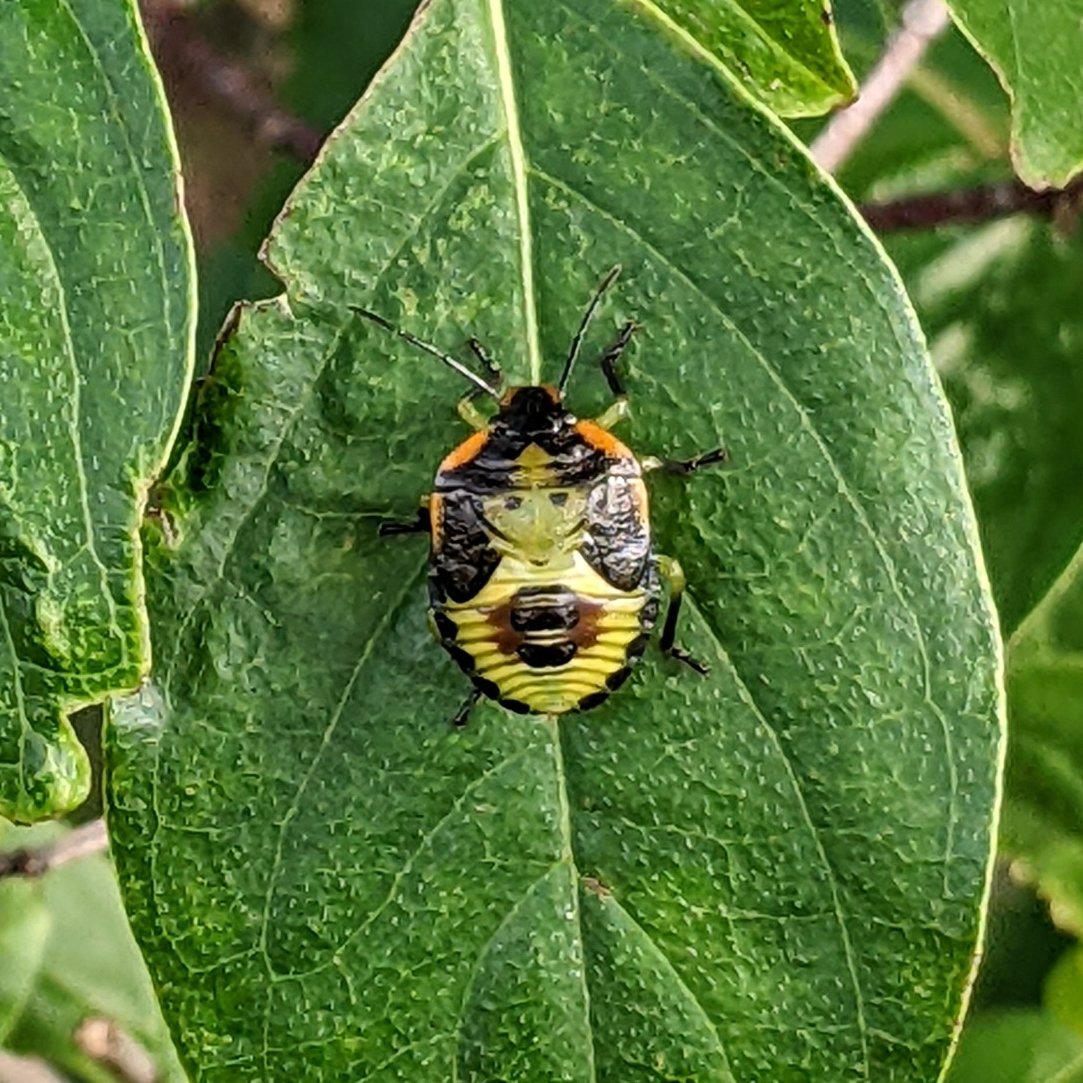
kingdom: Animalia
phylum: Arthropoda
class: Insecta
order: Hemiptera
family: Pentatomidae
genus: Chinavia
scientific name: Chinavia hilaris
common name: Green stink bug
